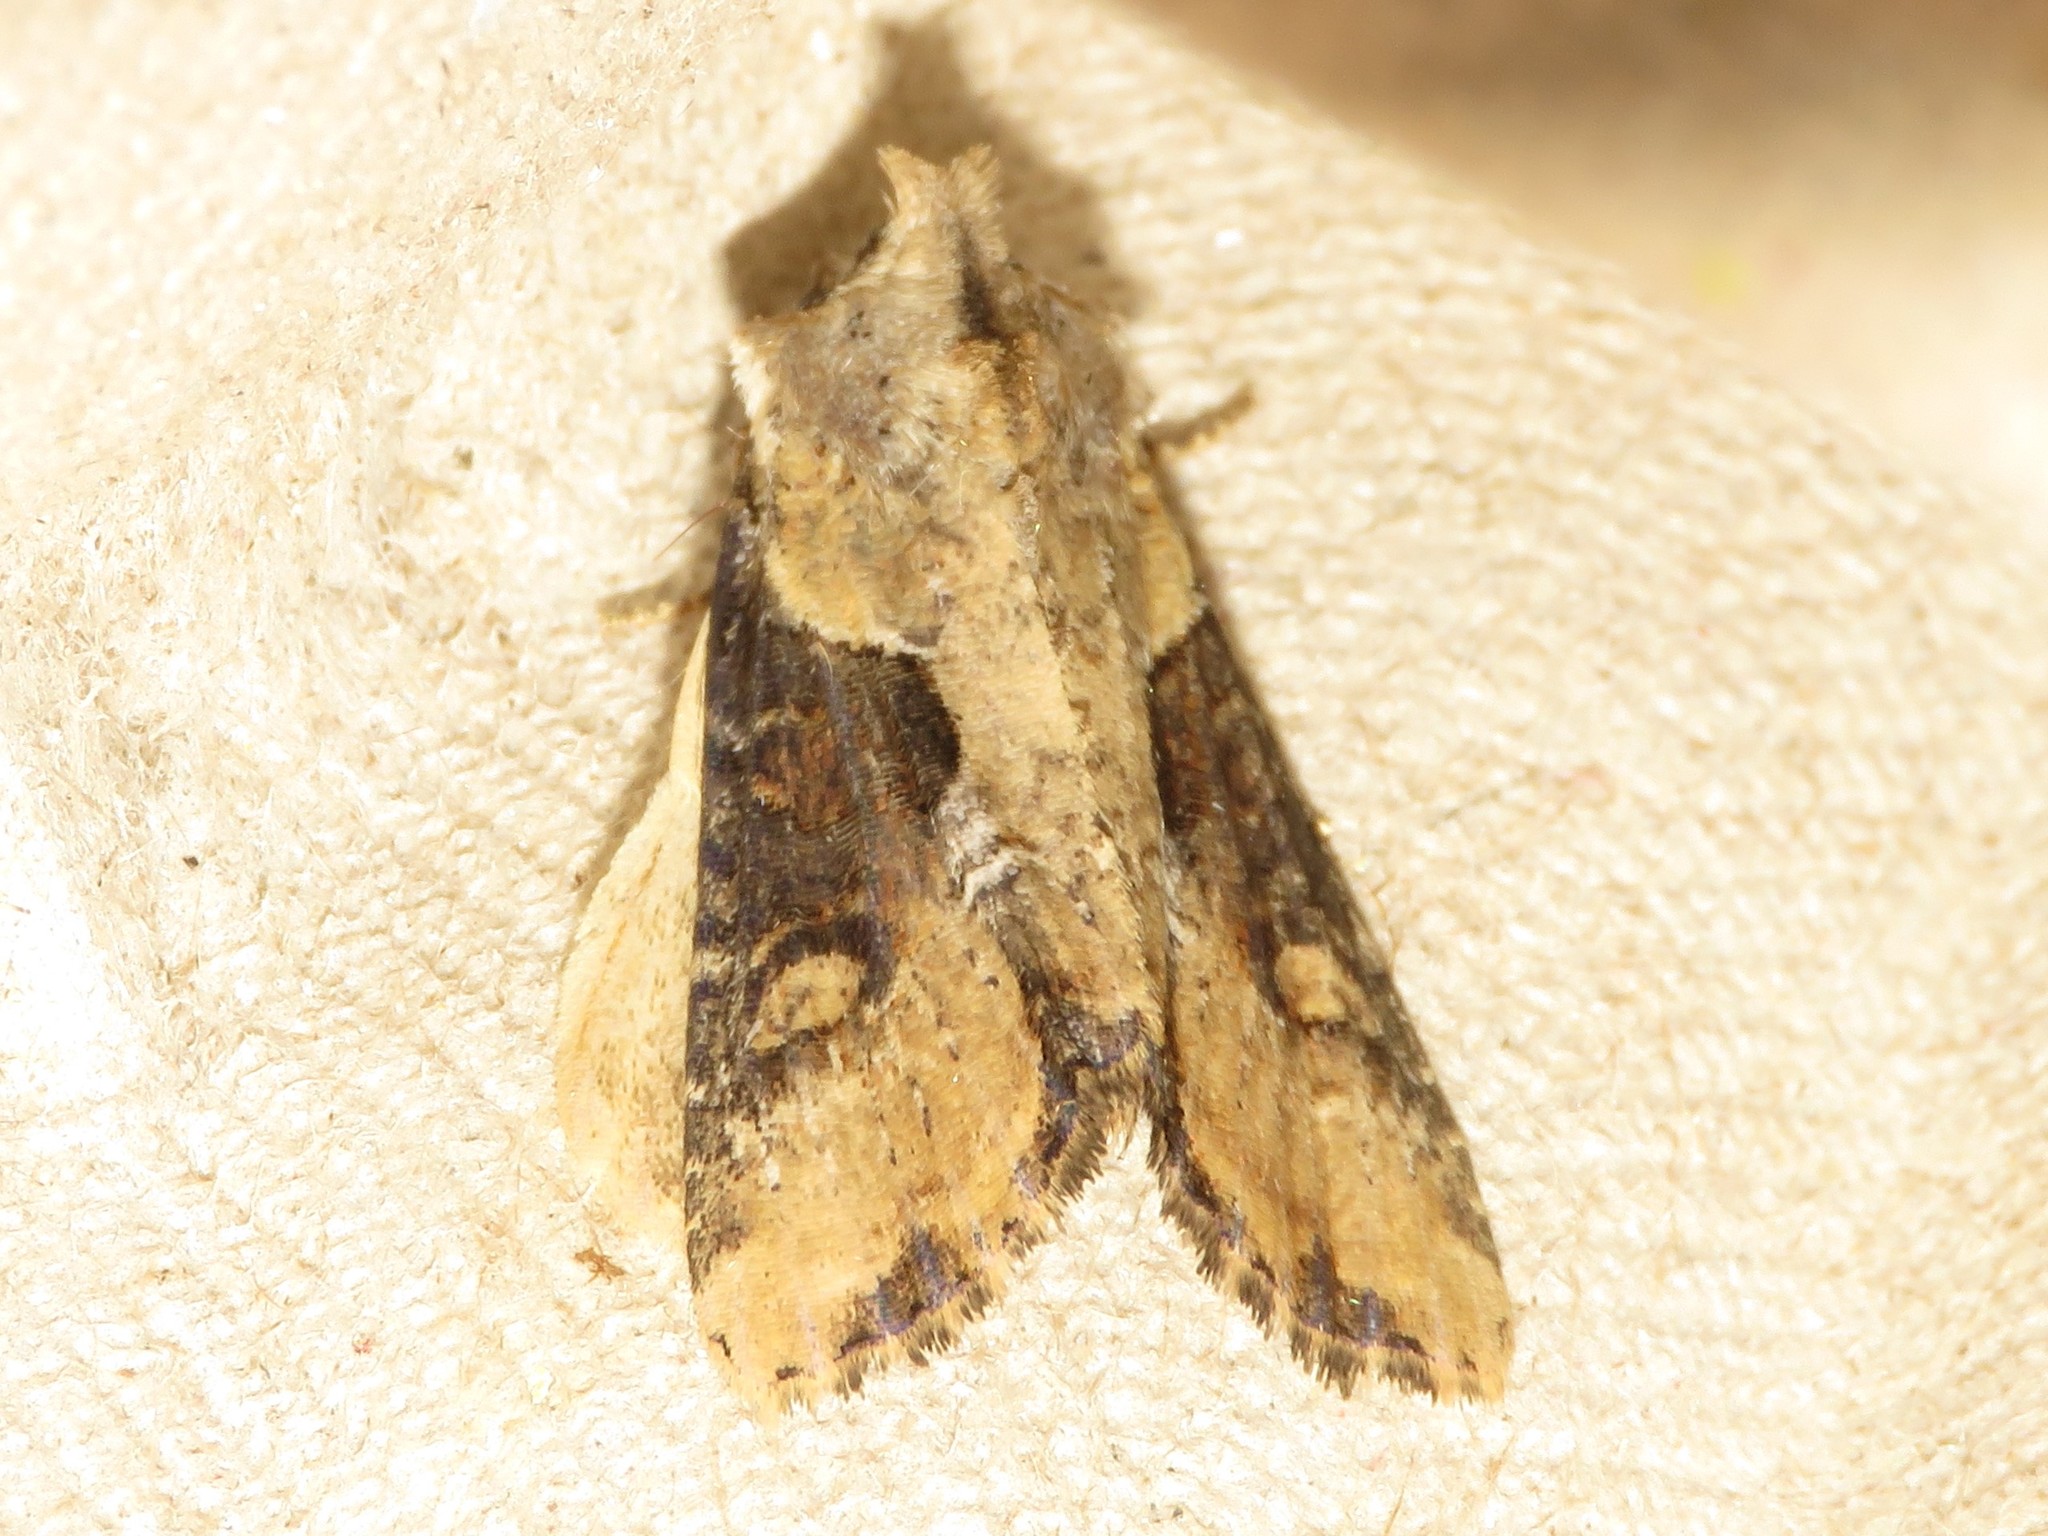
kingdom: Animalia
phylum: Arthropoda
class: Insecta
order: Lepidoptera
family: Noctuidae
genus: Lateroligia
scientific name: Lateroligia ophiogramma
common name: Double lobed
